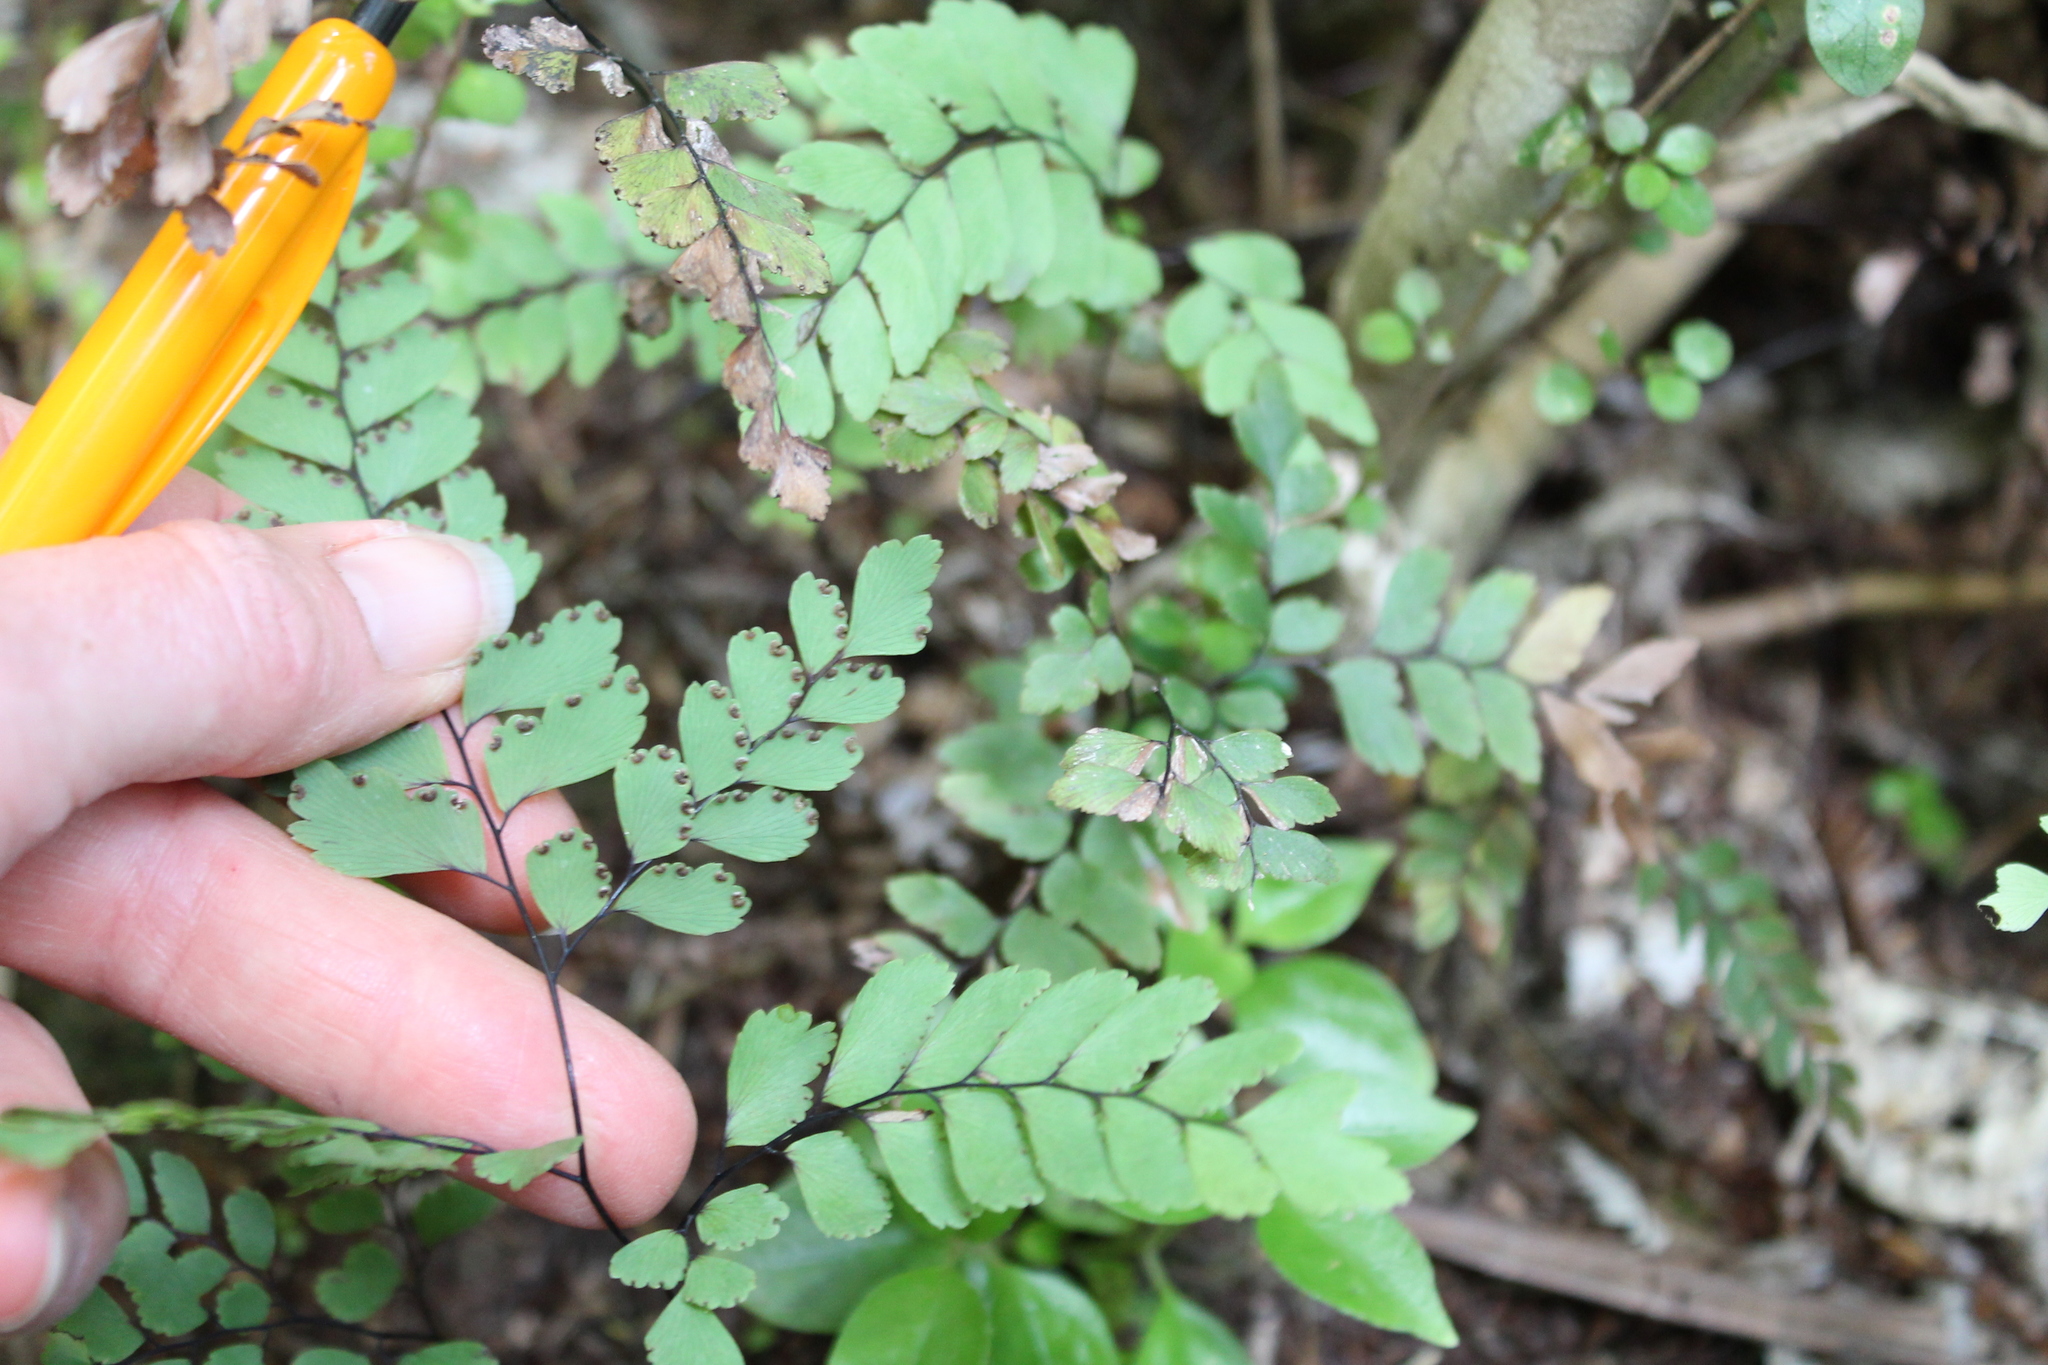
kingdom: Plantae
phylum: Tracheophyta
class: Polypodiopsida
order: Polypodiales
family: Pteridaceae
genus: Adiantum
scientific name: Adiantum cunninghamii
